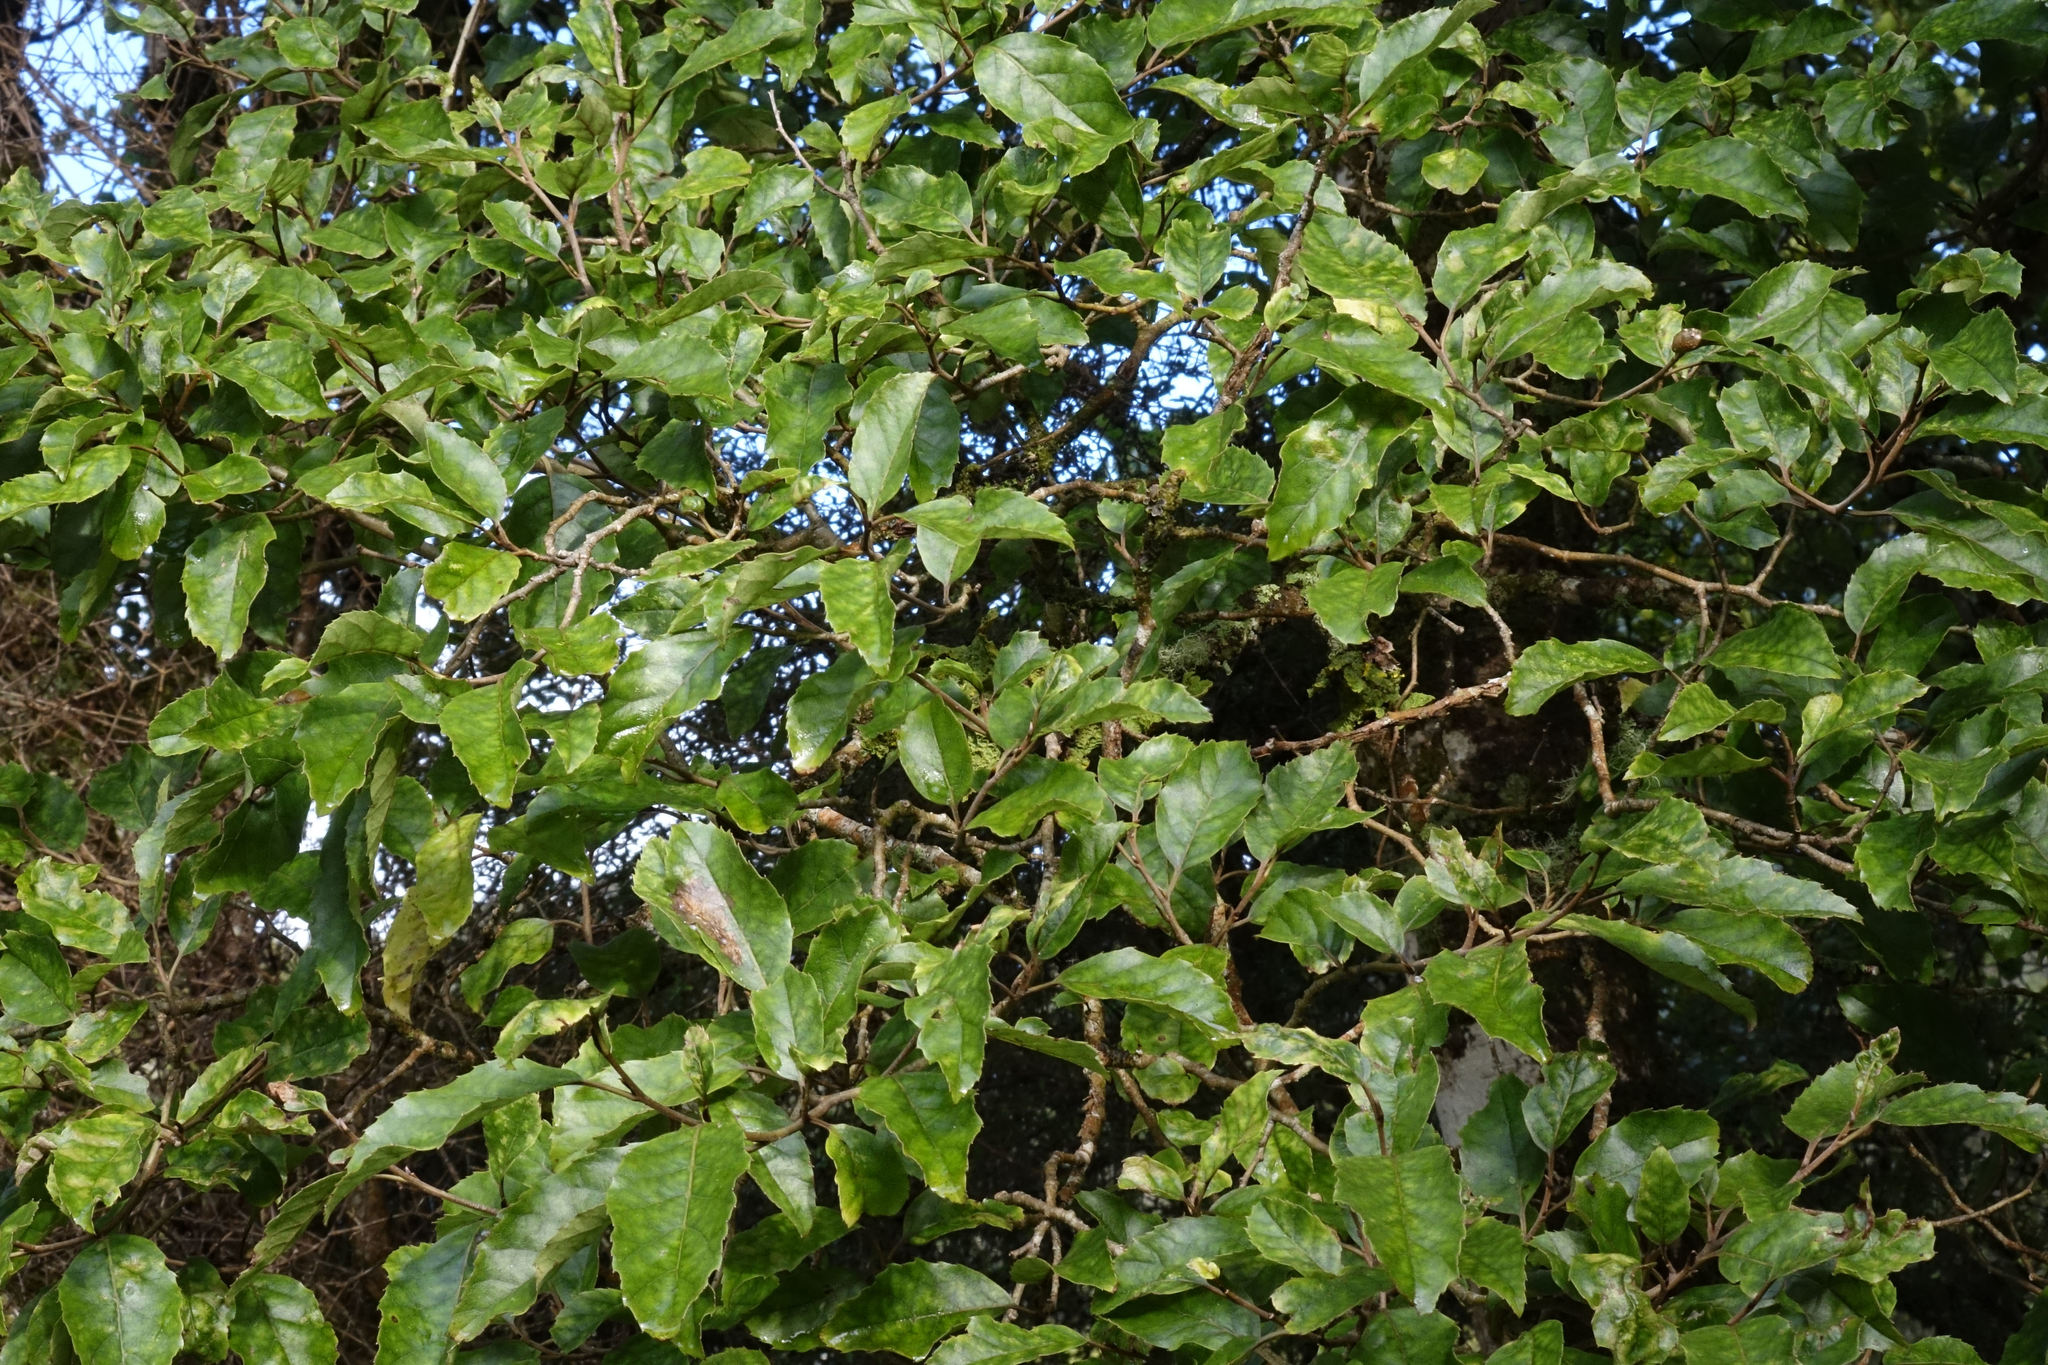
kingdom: Plantae
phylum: Tracheophyta
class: Magnoliopsida
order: Asterales
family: Rousseaceae
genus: Carpodetus
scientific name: Carpodetus serratus
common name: White mapau
